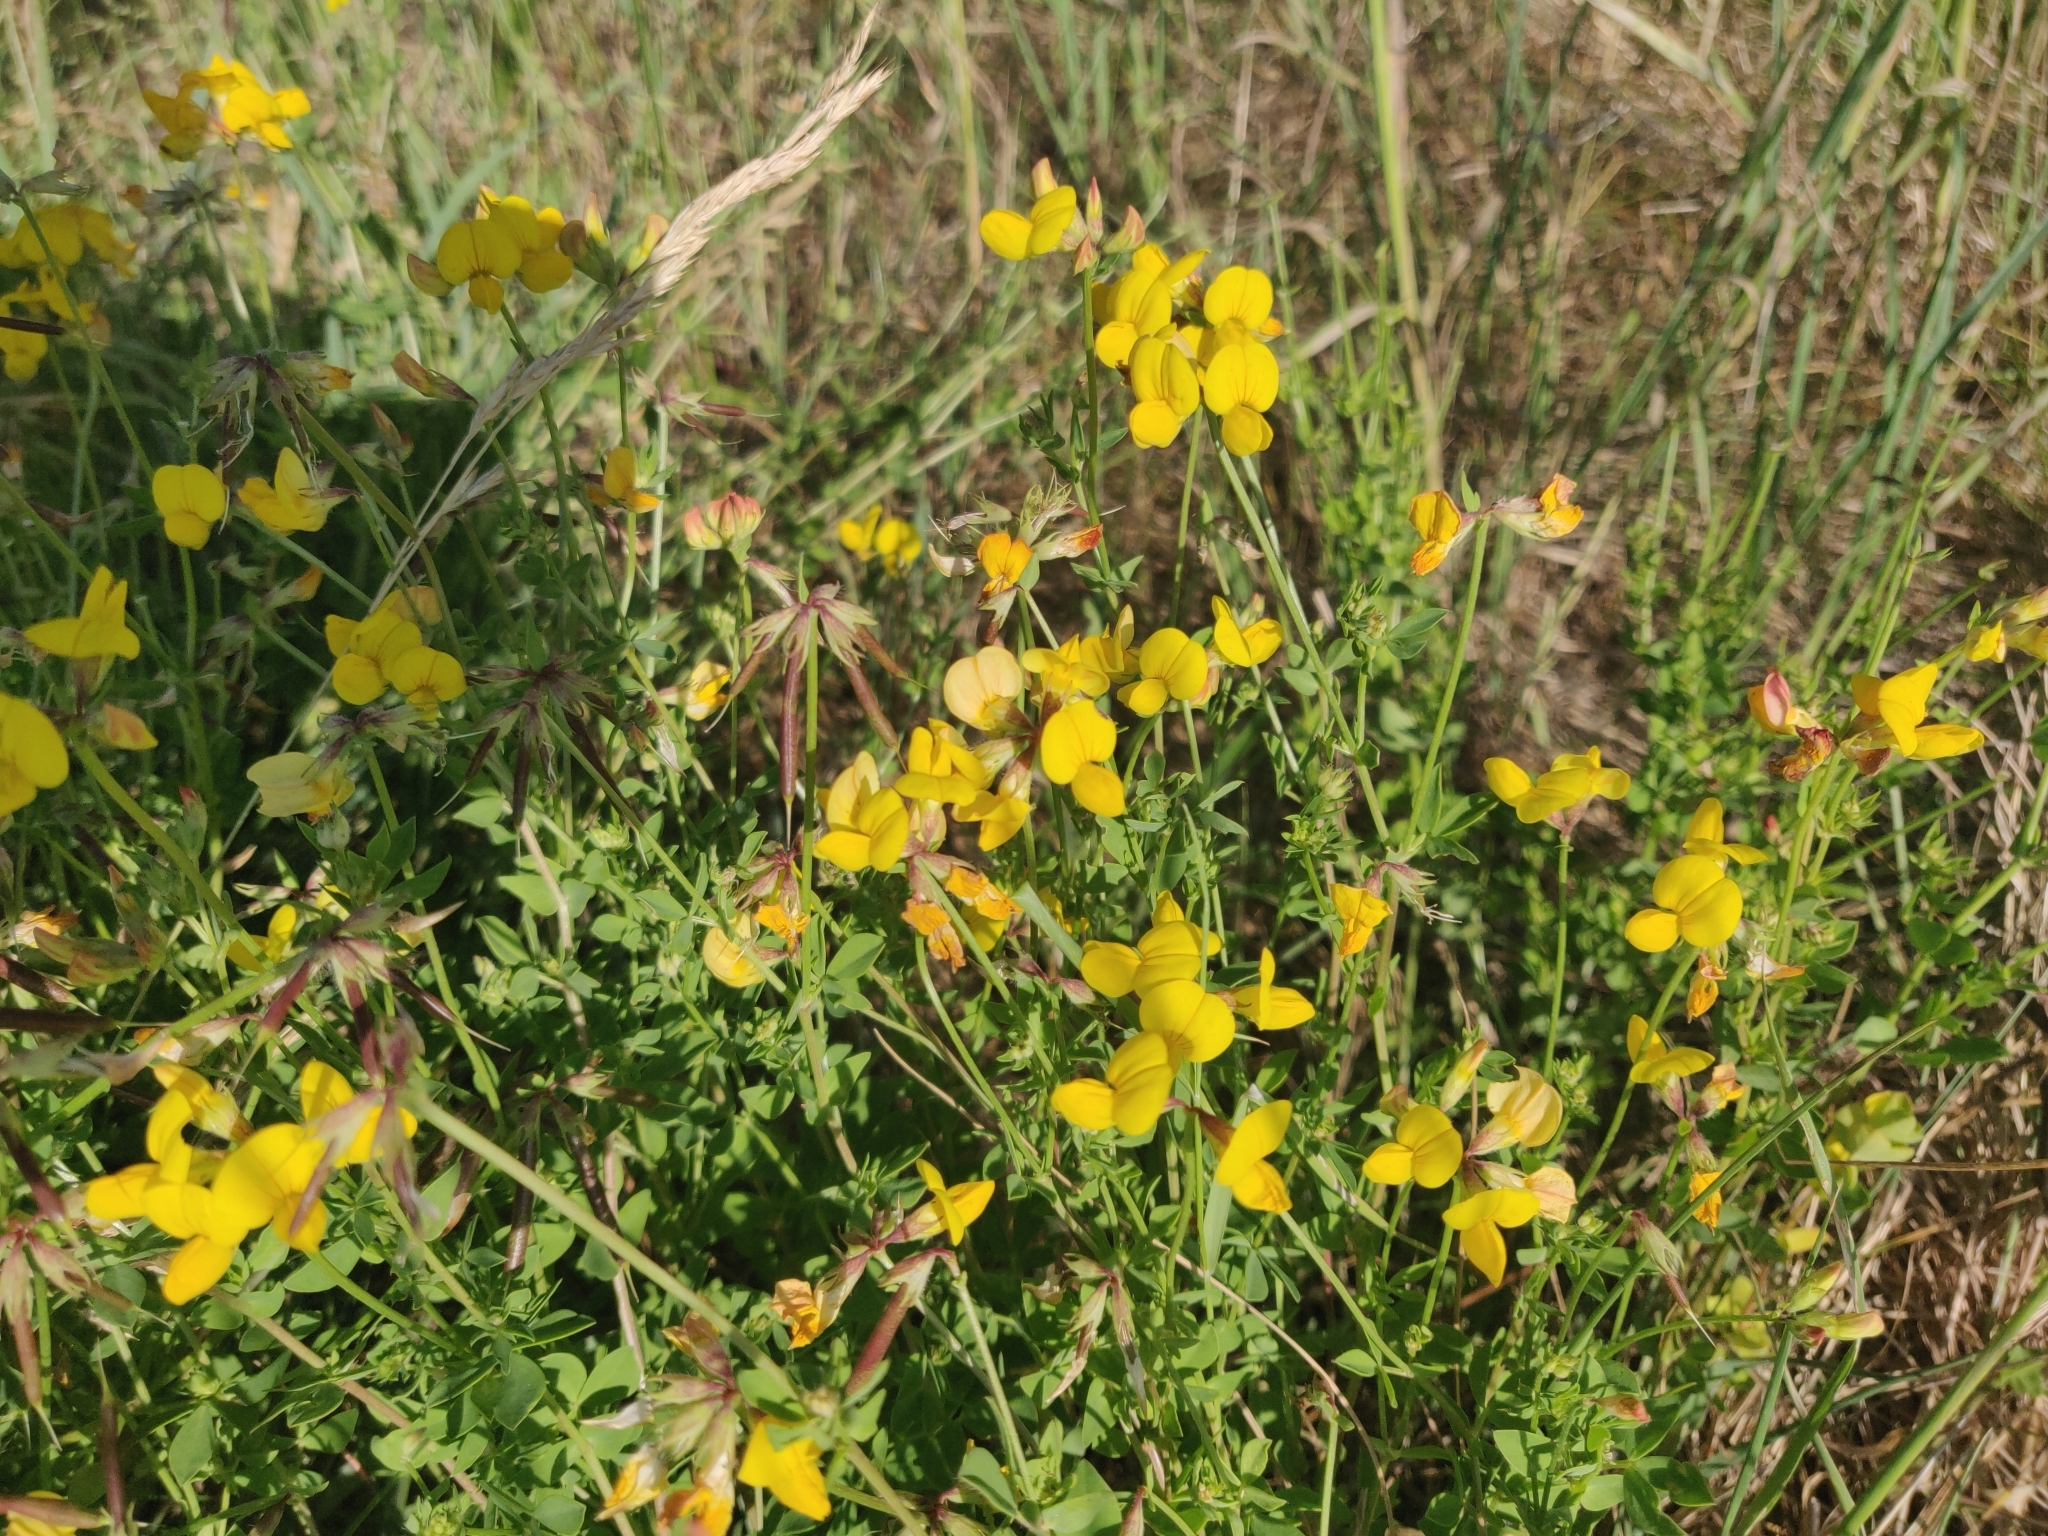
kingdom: Plantae
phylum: Tracheophyta
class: Magnoliopsida
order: Fabales
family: Fabaceae
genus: Lotus
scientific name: Lotus corniculatus
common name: Common bird's-foot-trefoil
